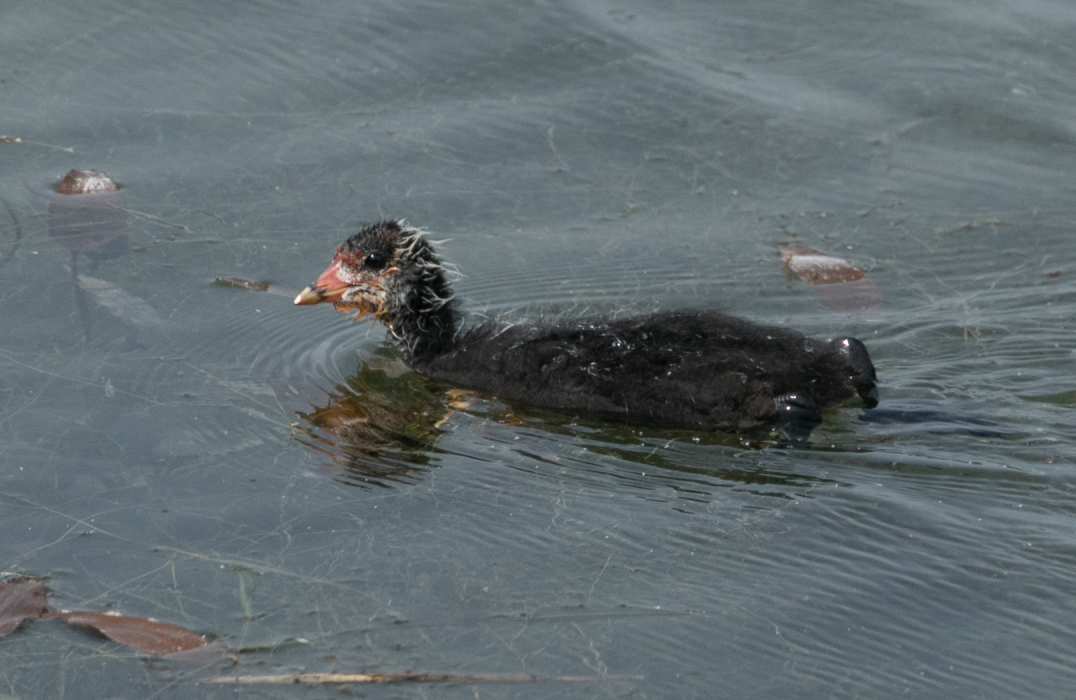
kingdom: Animalia
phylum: Chordata
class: Aves
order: Gruiformes
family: Rallidae
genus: Fulica
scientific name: Fulica atra
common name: Eurasian coot
